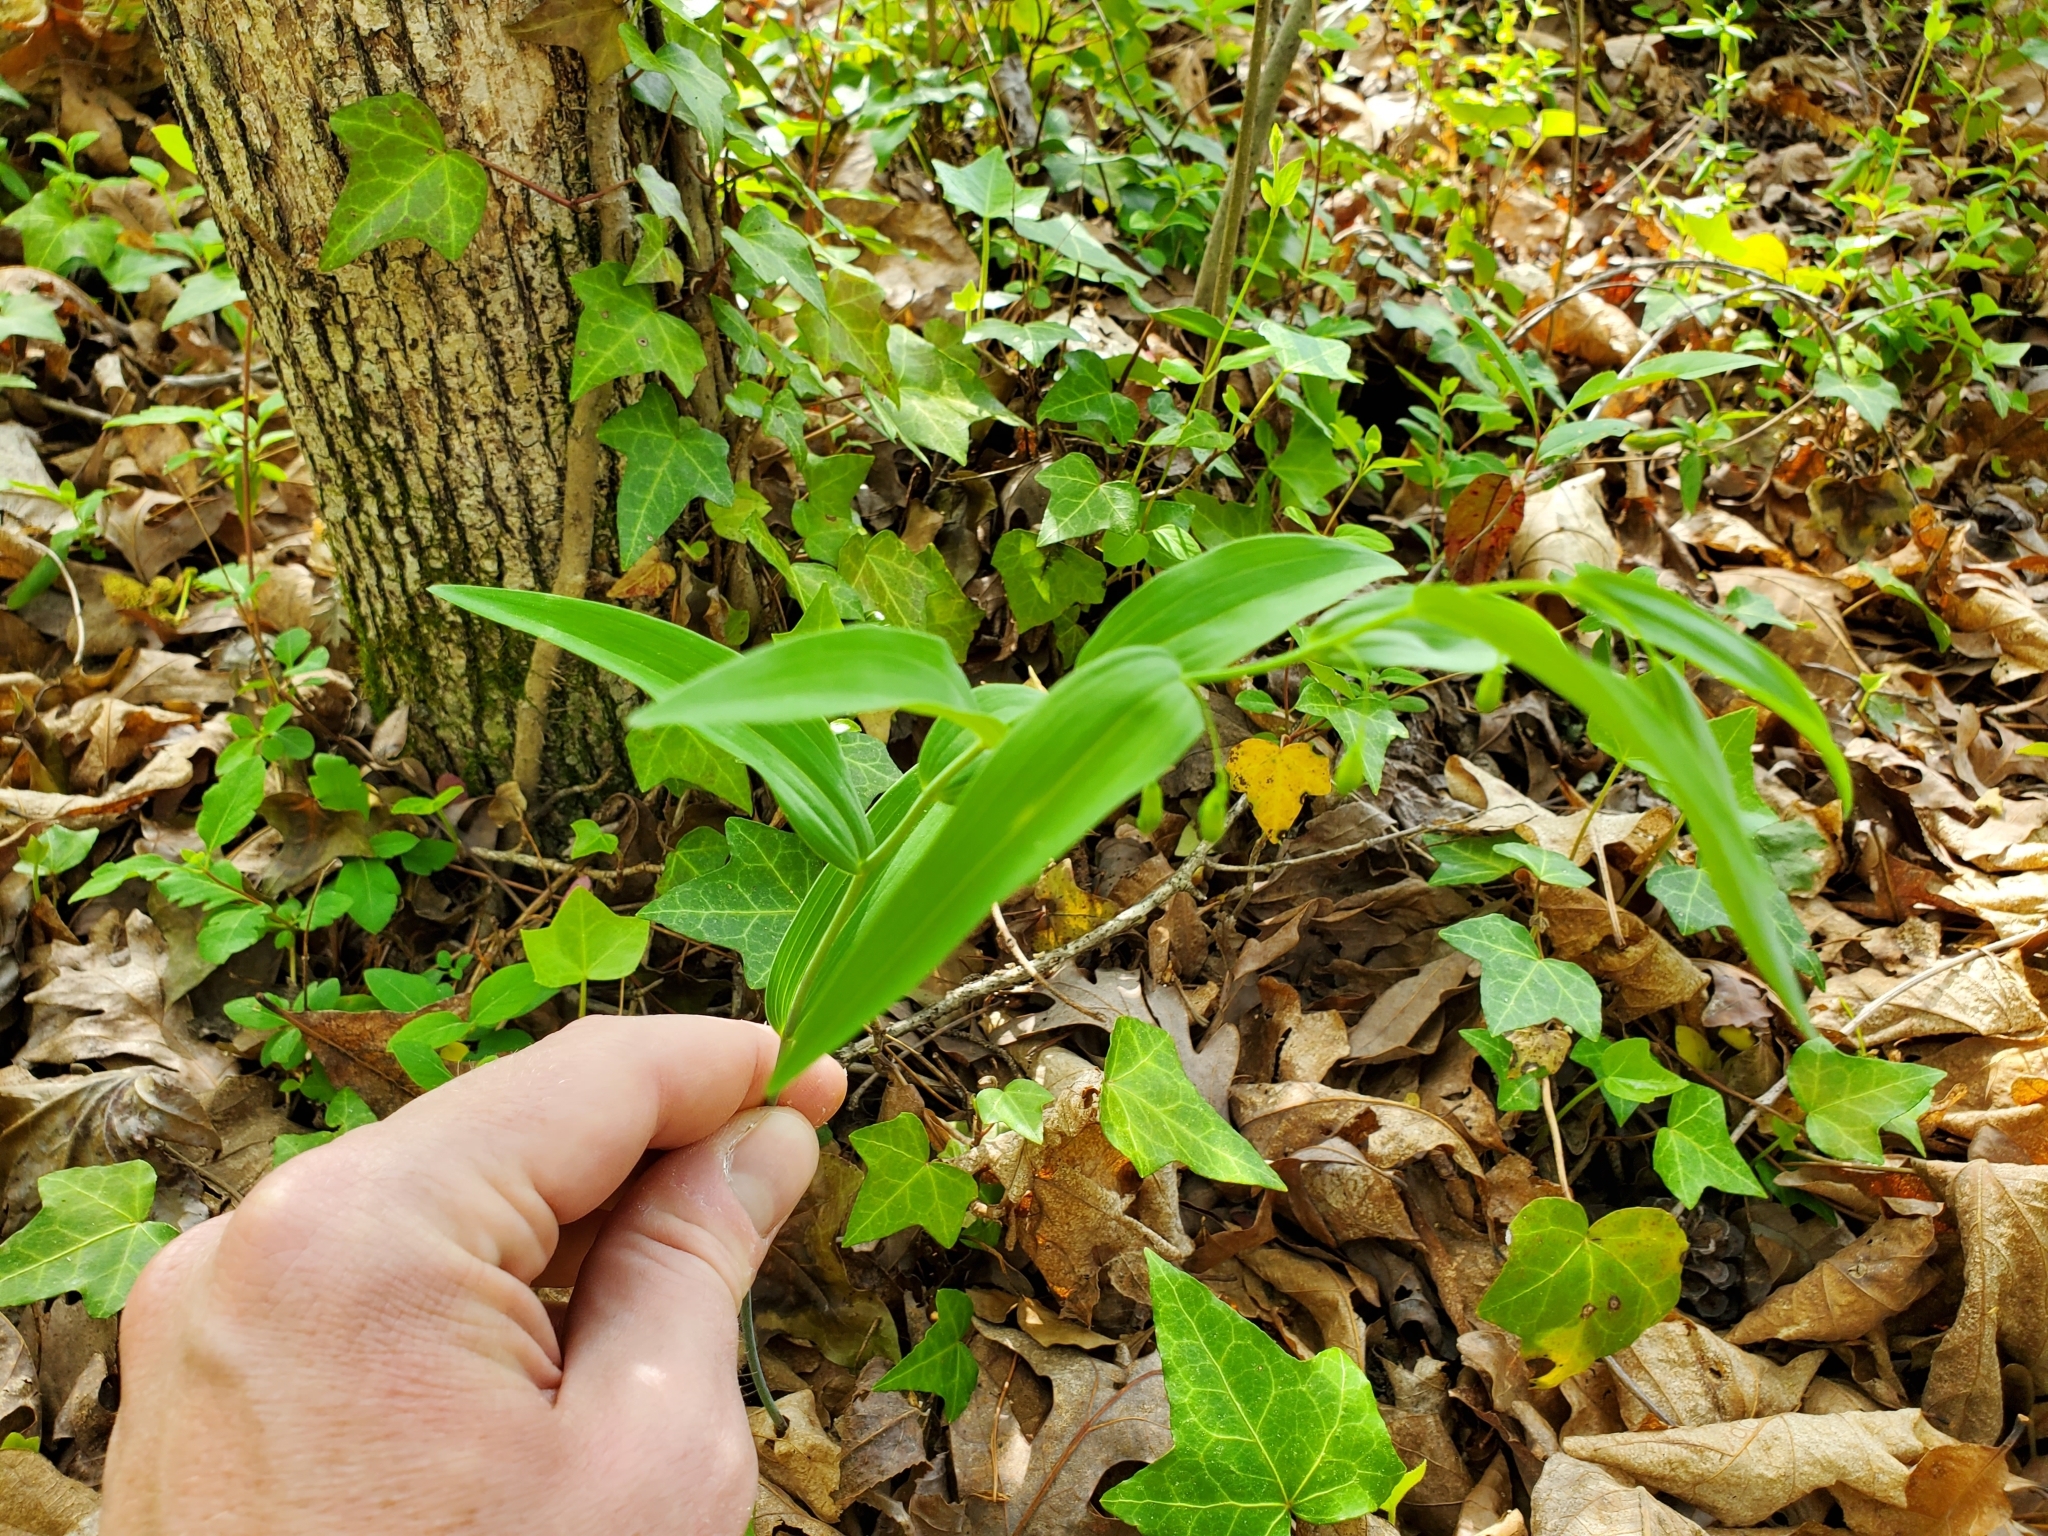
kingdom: Plantae
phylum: Tracheophyta
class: Liliopsida
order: Asparagales
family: Asparagaceae
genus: Polygonatum
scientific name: Polygonatum biflorum
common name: American solomon's-seal
